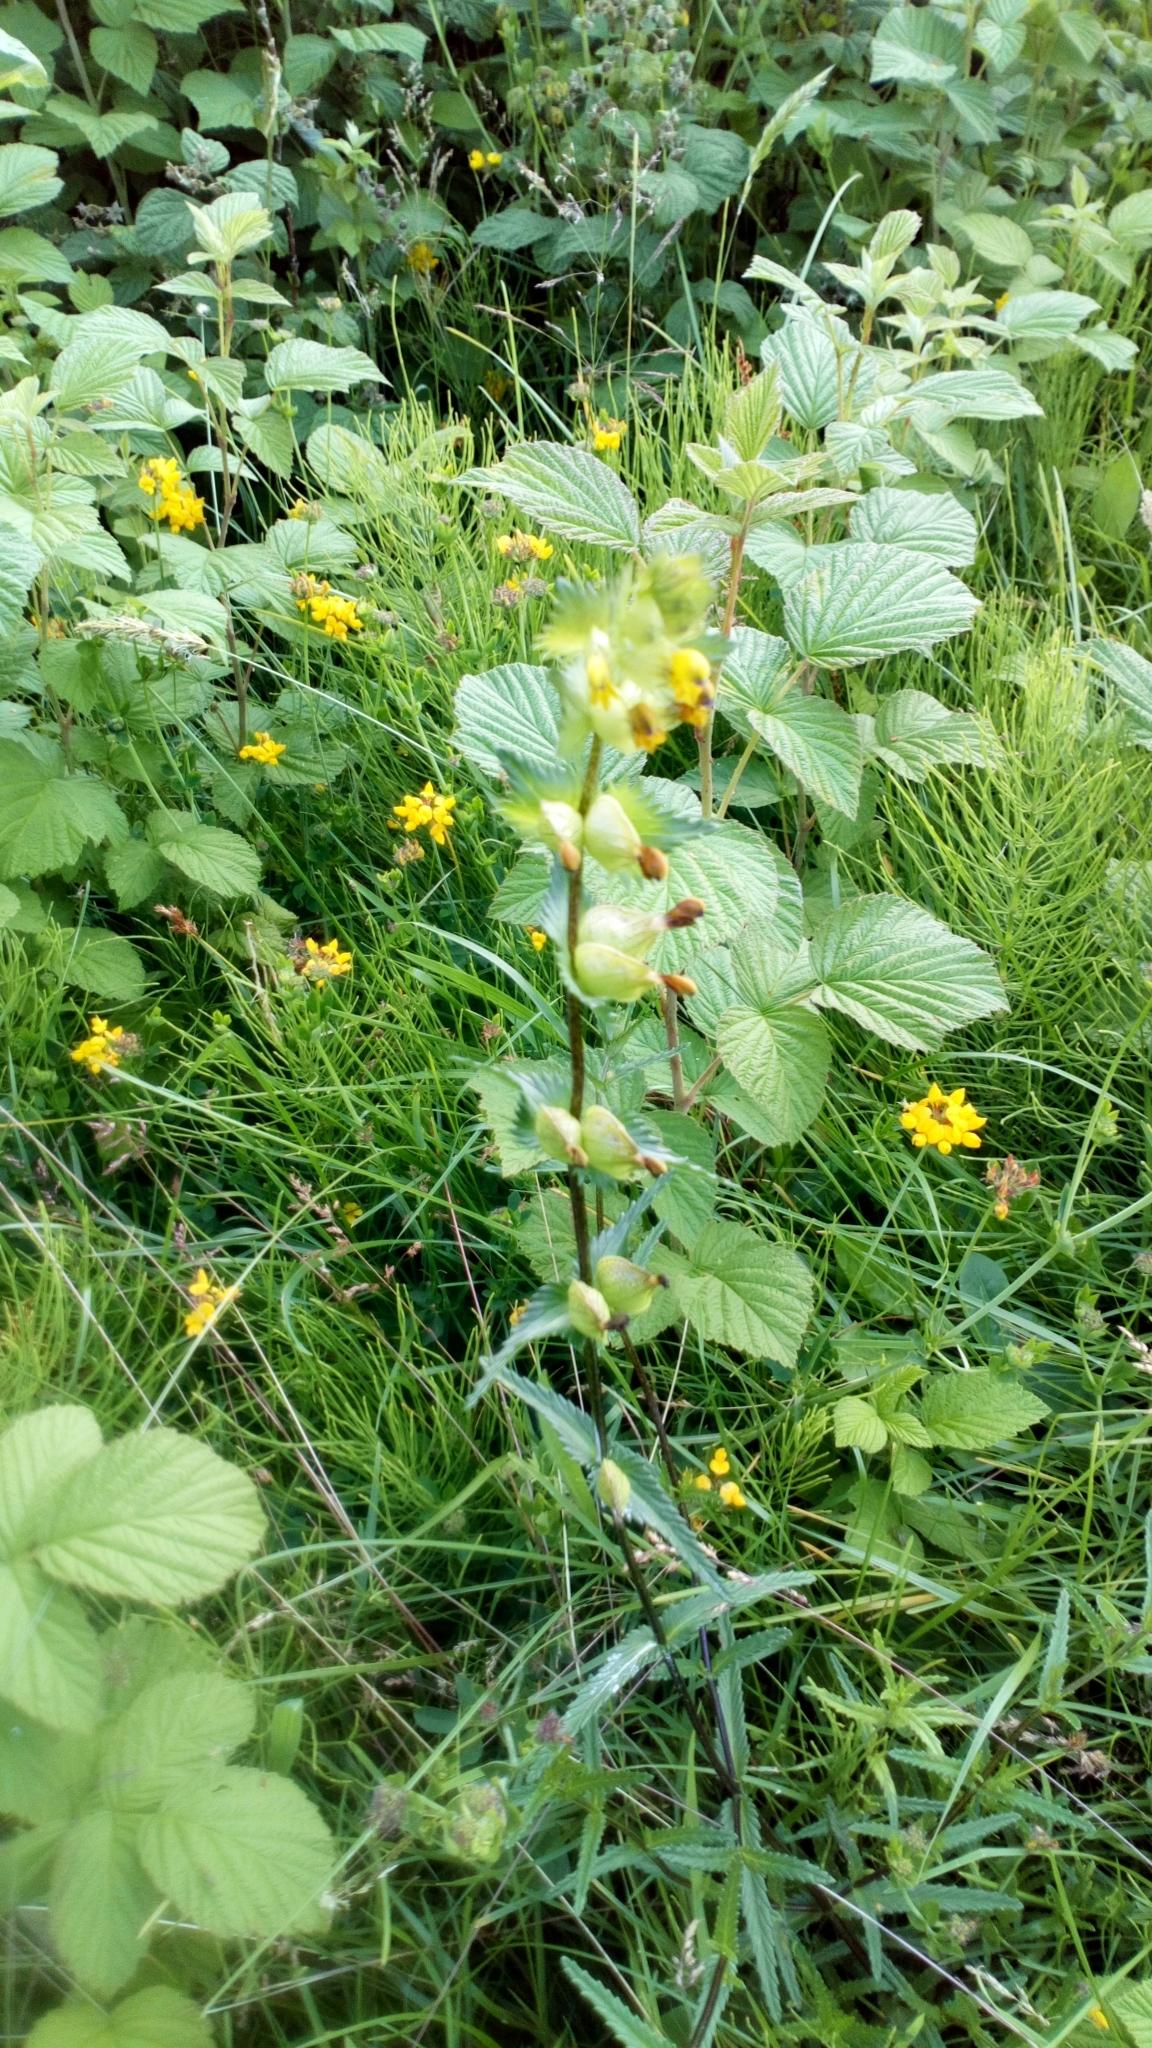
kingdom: Plantae
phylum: Tracheophyta
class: Magnoliopsida
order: Lamiales
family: Orobanchaceae
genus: Rhinanthus
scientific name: Rhinanthus minor
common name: Yellow-rattle
